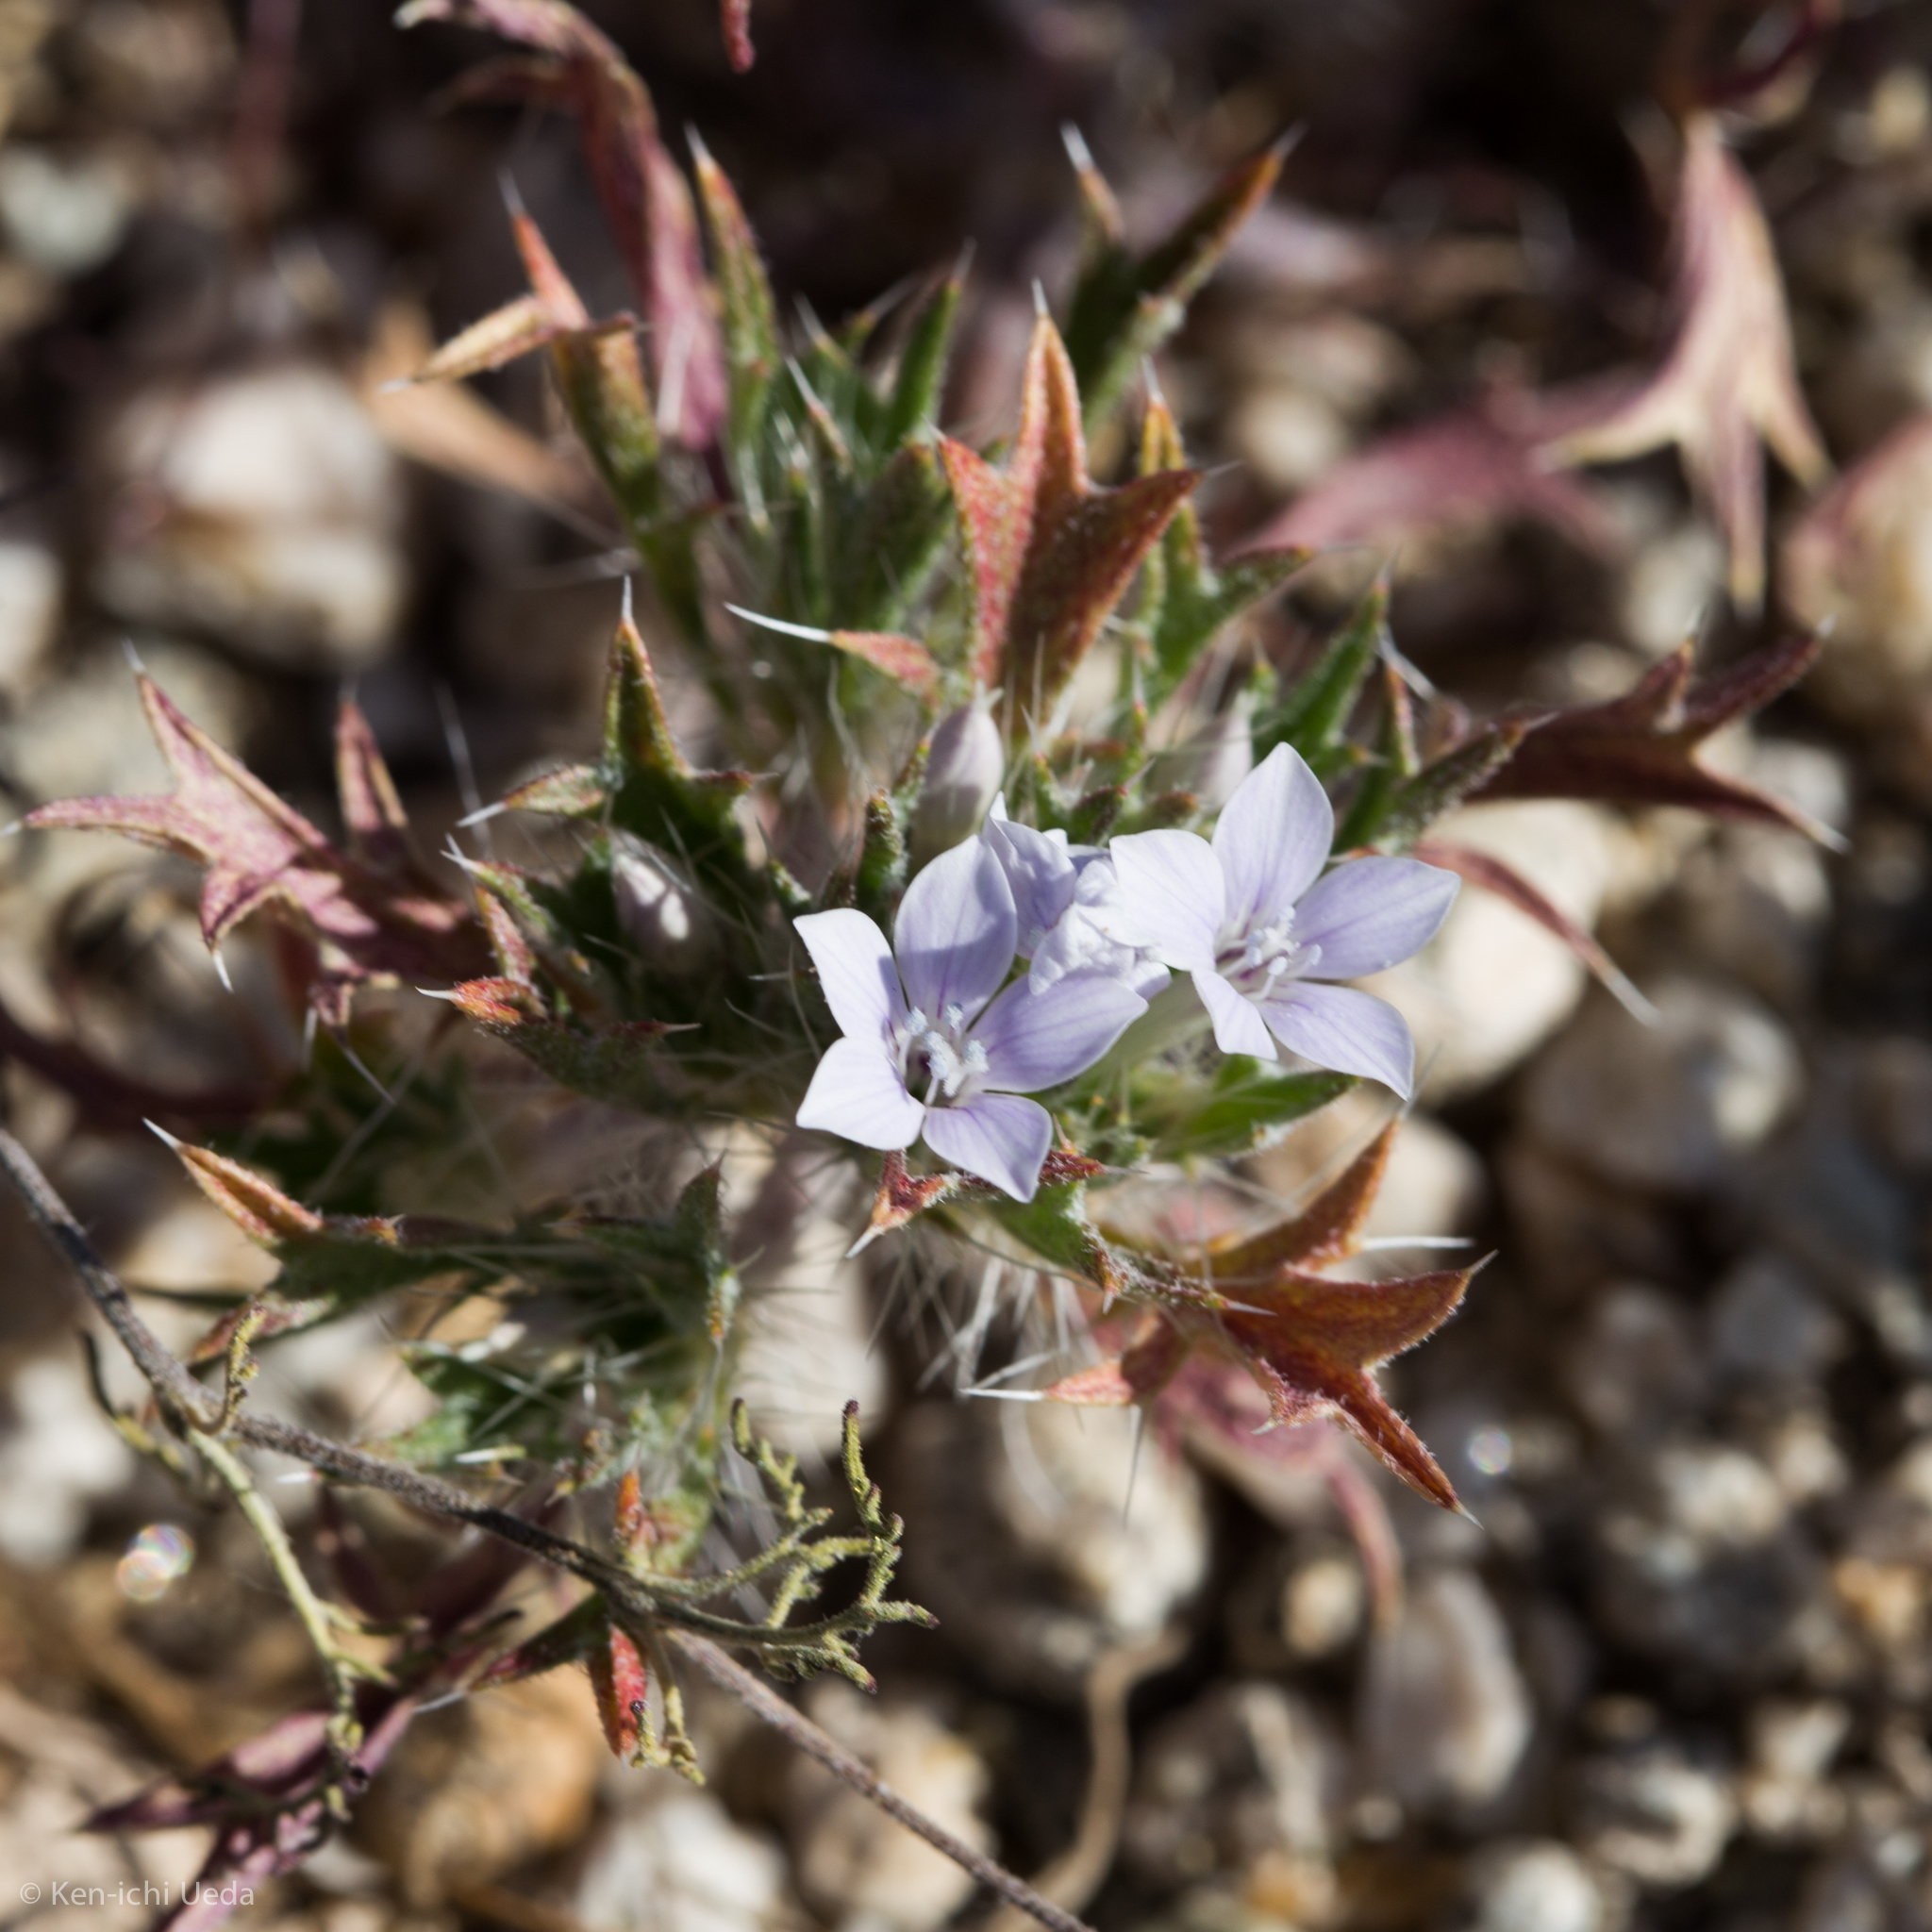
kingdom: Plantae
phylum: Tracheophyta
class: Magnoliopsida
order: Ericales
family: Polemoniaceae
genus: Langloisia
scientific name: Langloisia setosissima
